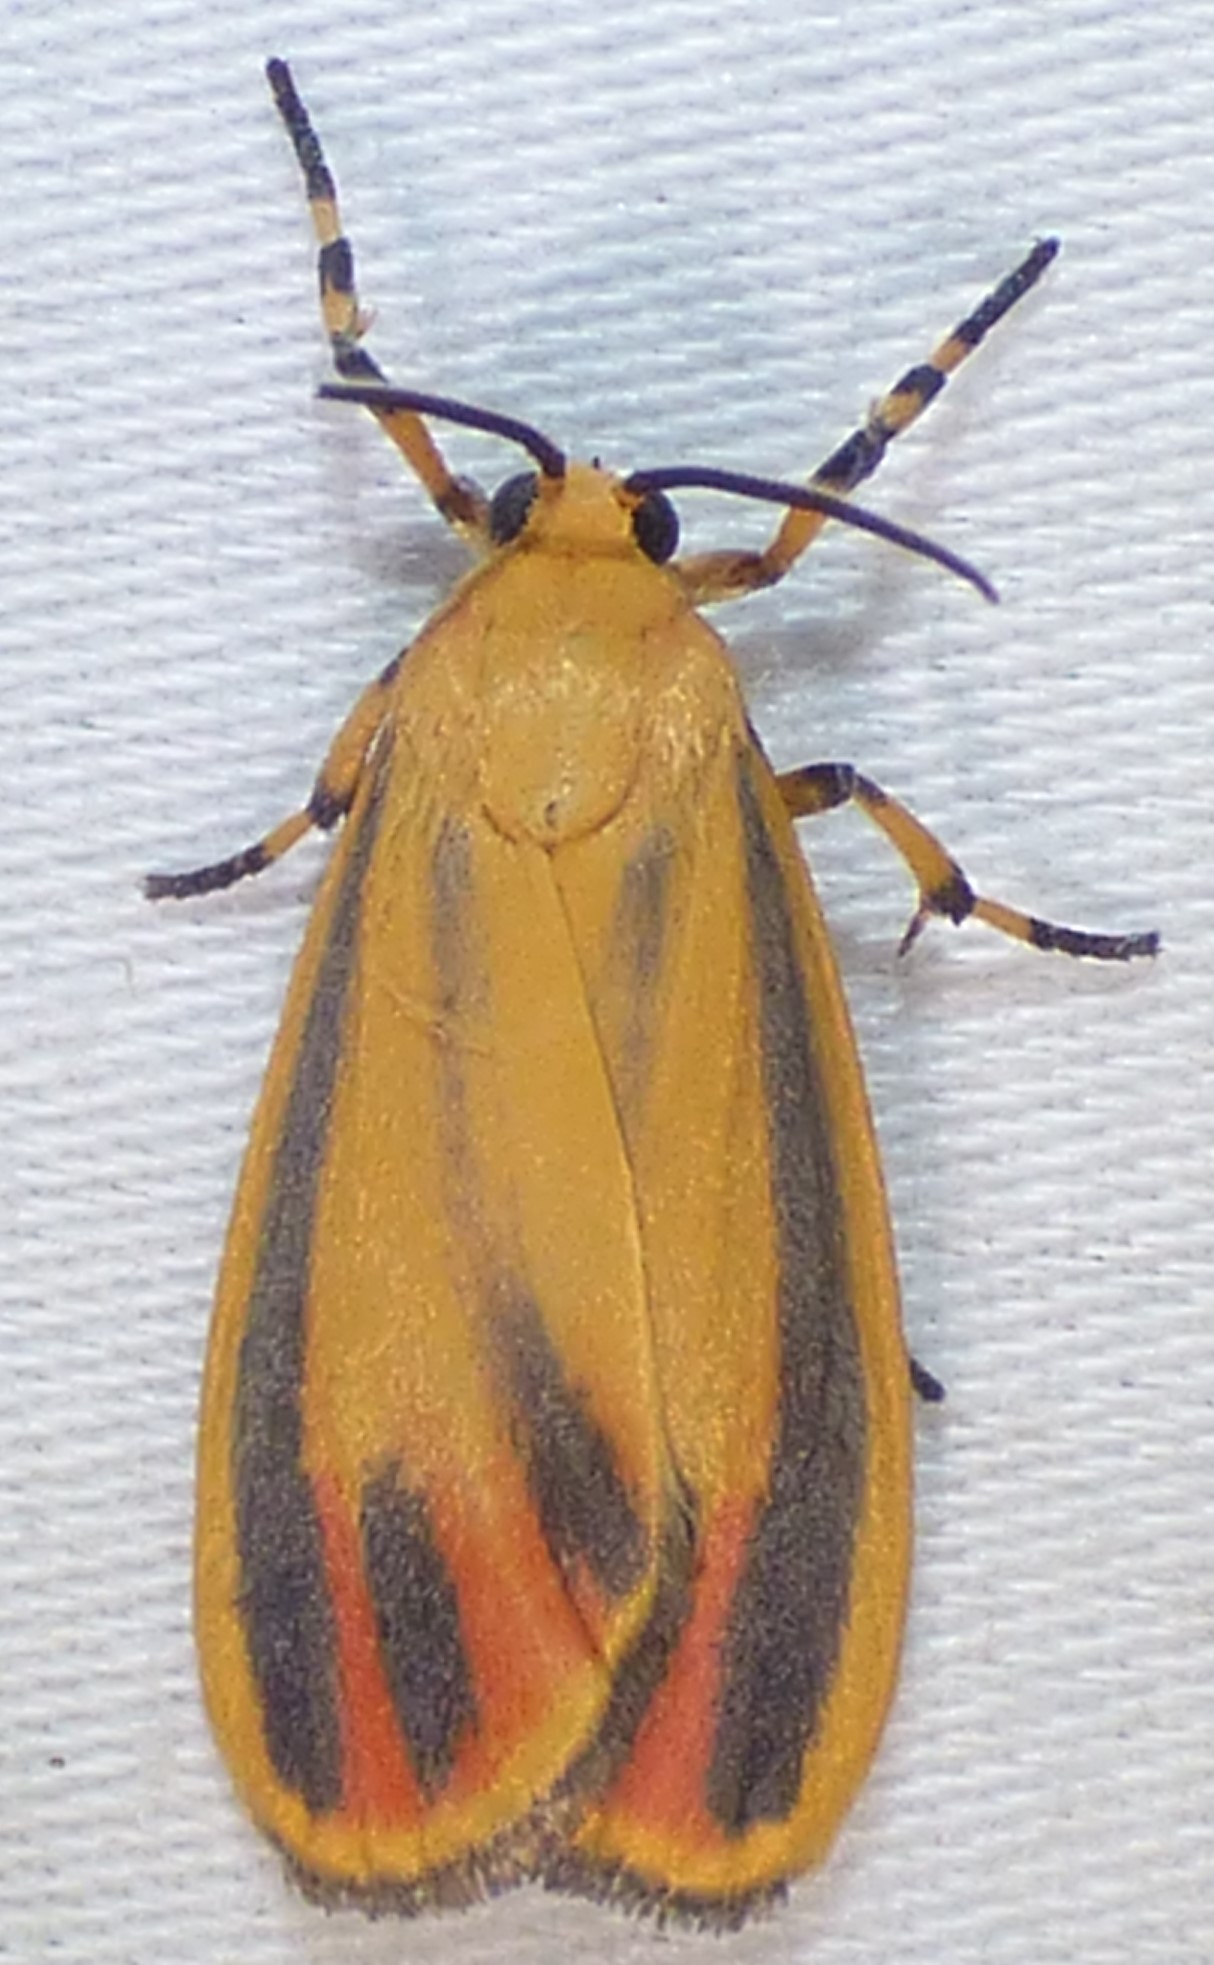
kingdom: Animalia
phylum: Arthropoda
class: Insecta
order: Lepidoptera
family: Erebidae
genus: Hypoprepia
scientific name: Hypoprepia fucosa
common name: Painted lichen moth
